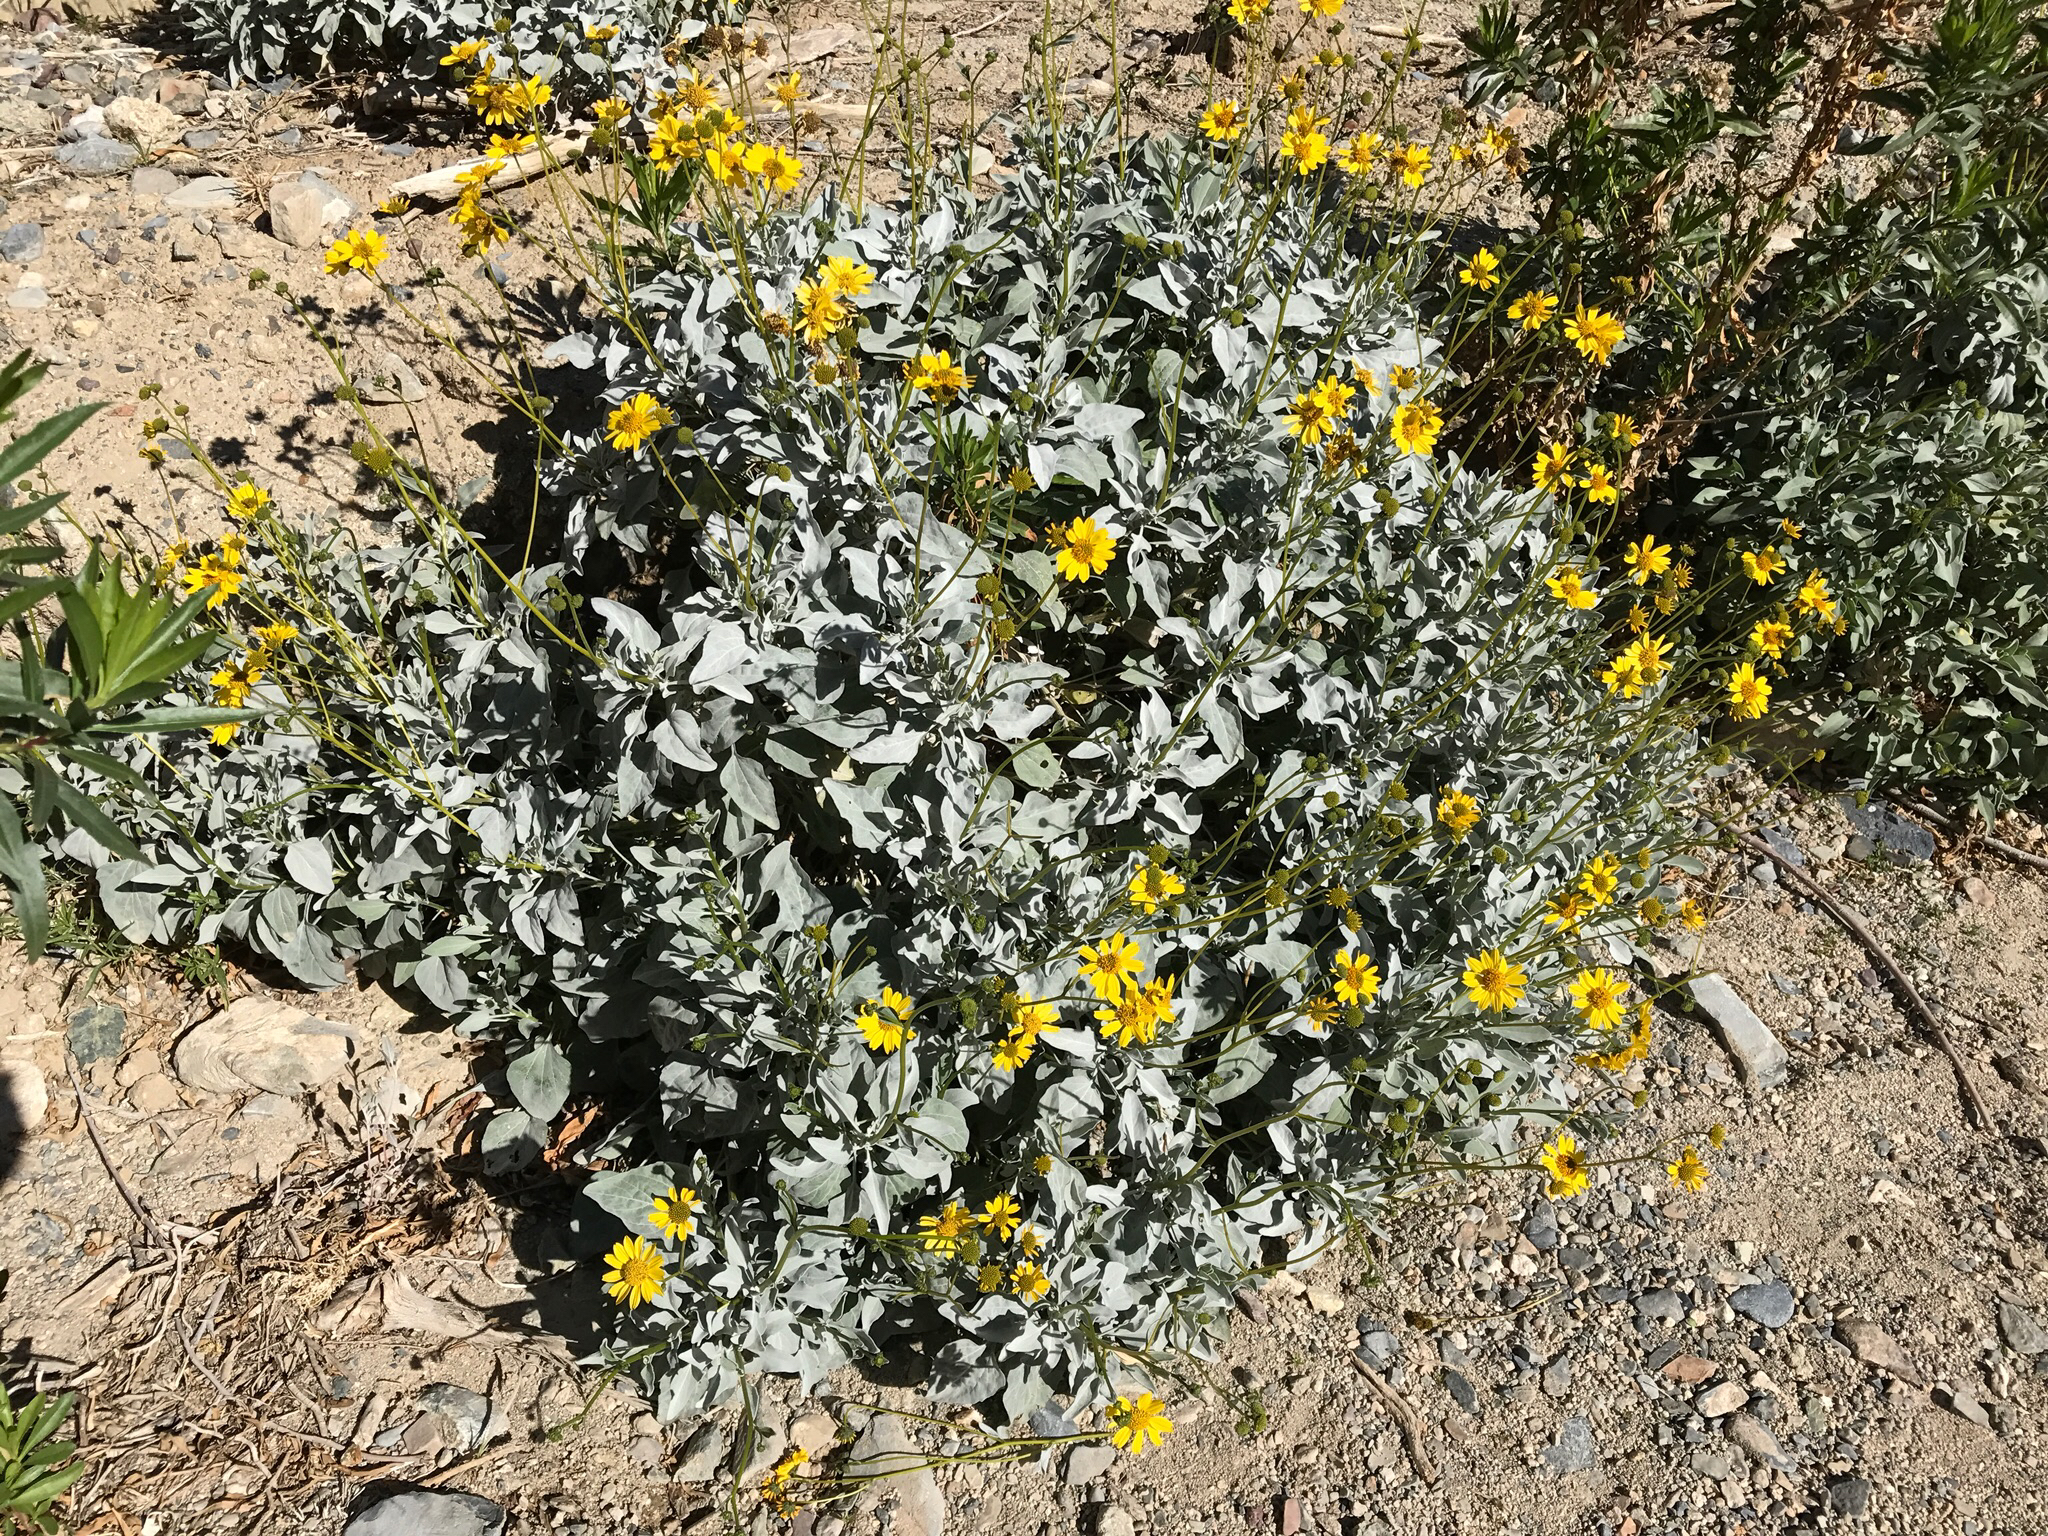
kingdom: Plantae
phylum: Tracheophyta
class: Magnoliopsida
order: Asterales
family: Asteraceae
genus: Encelia
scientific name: Encelia farinosa
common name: Brittlebush
